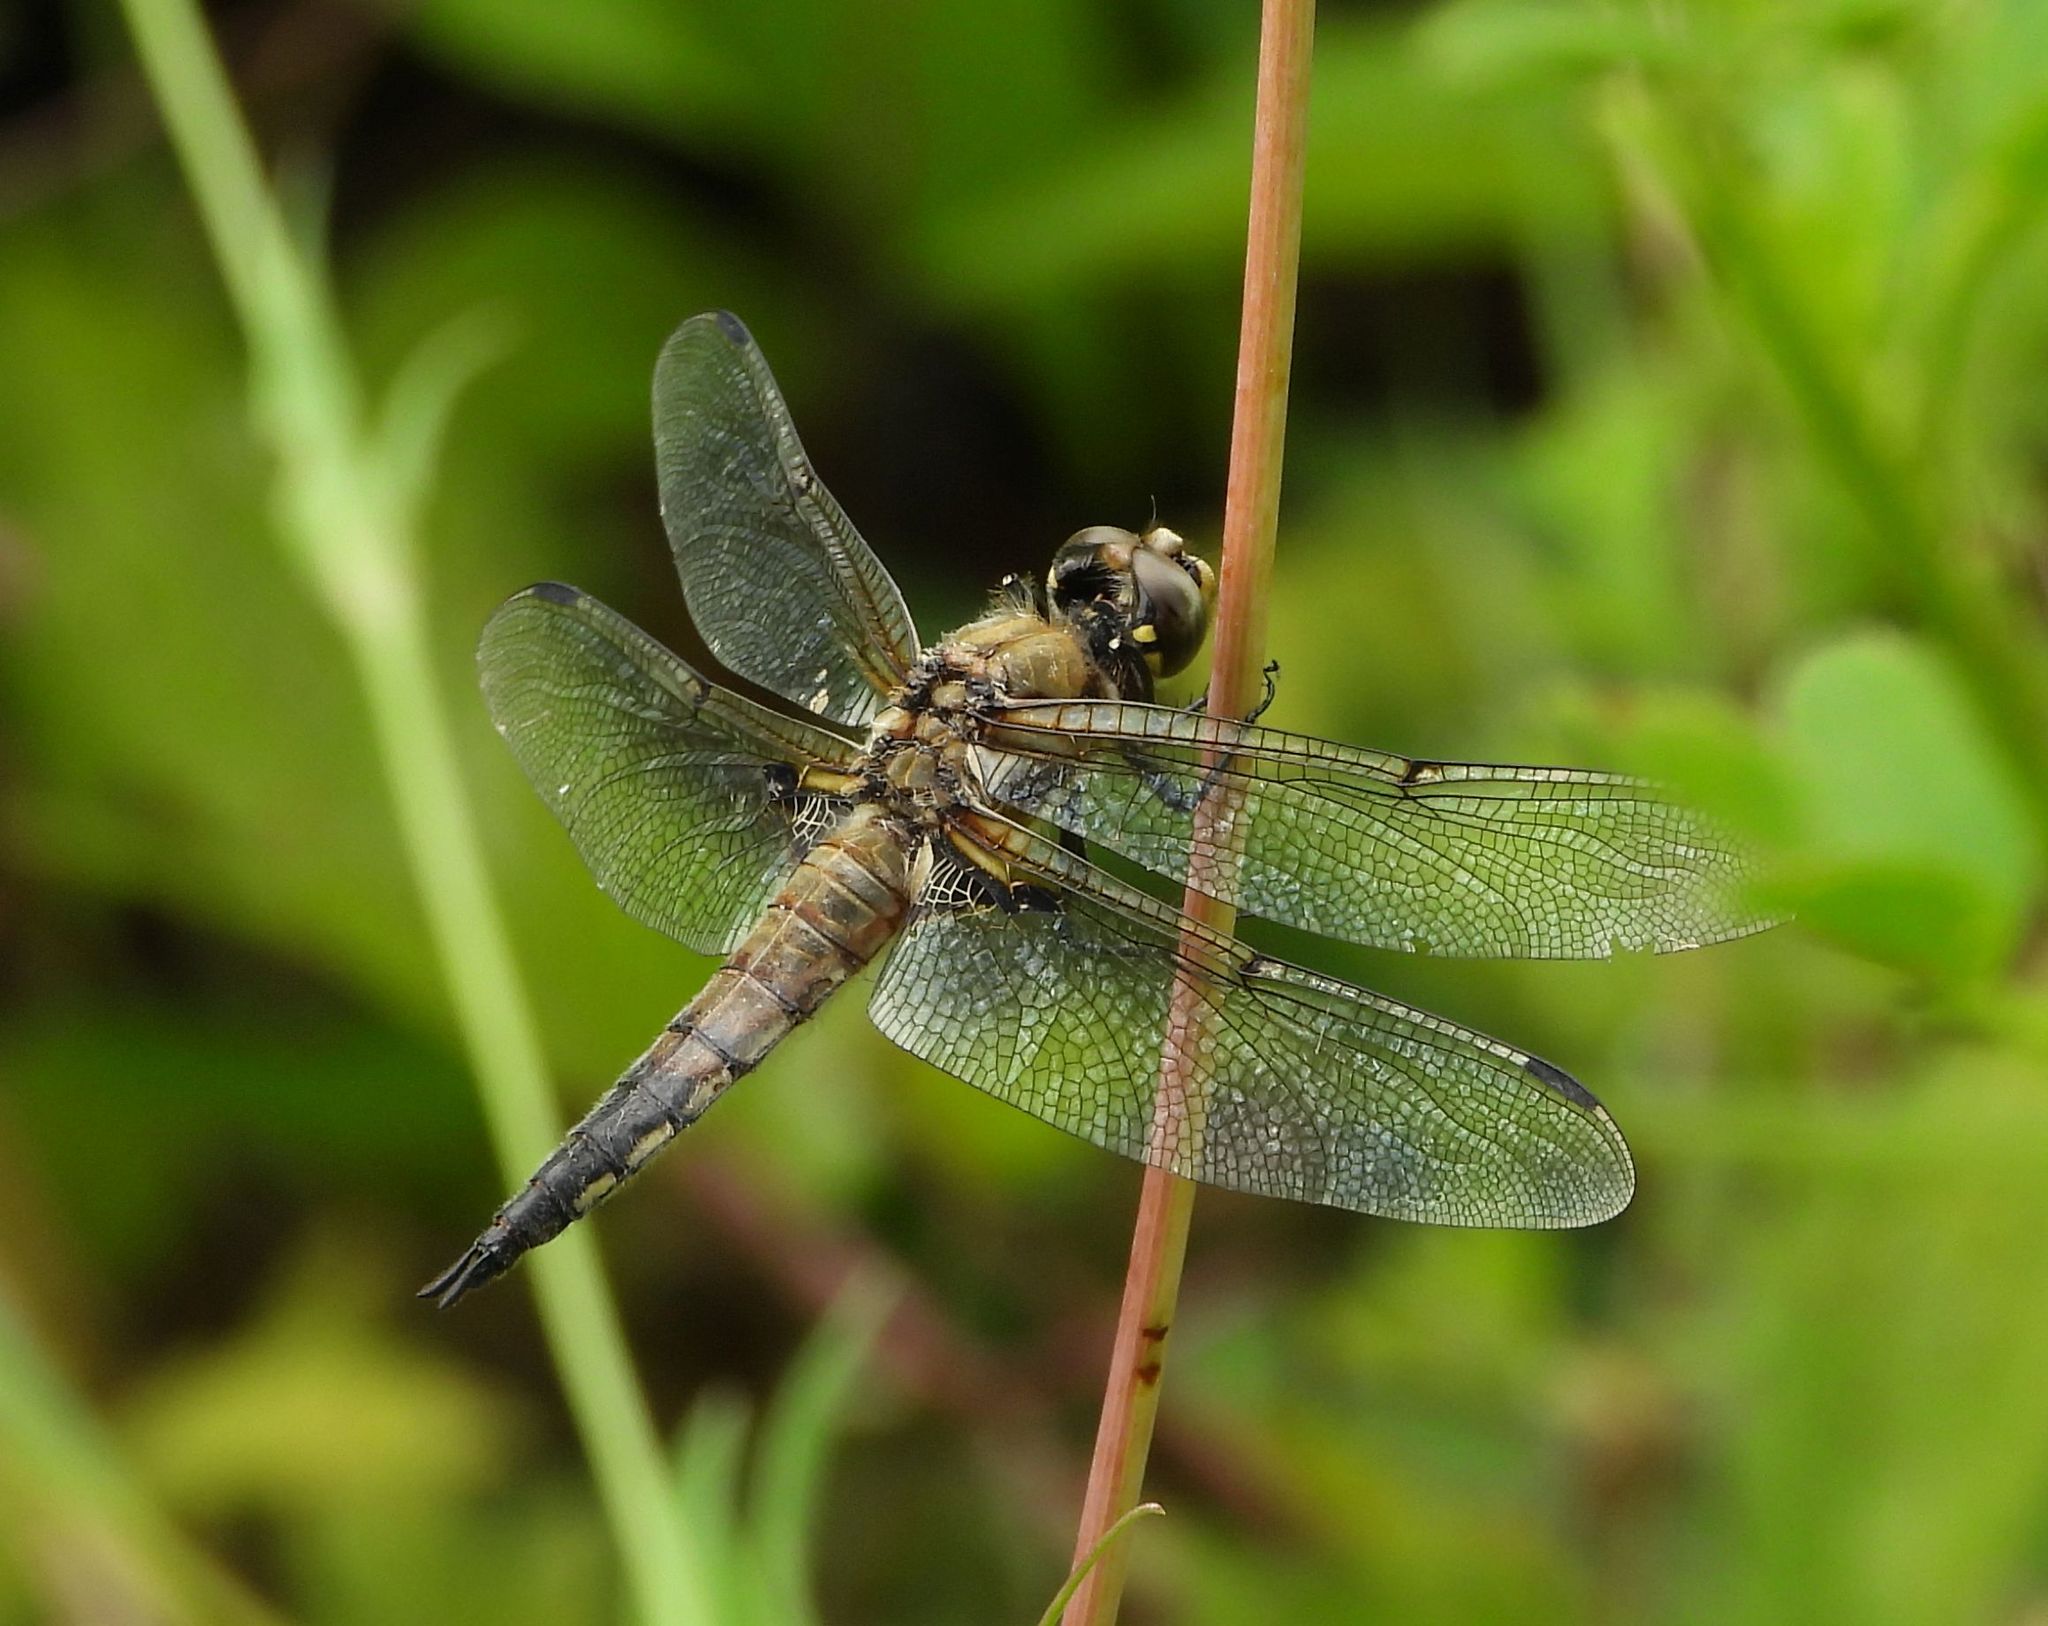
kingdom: Animalia
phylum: Arthropoda
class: Insecta
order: Odonata
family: Libellulidae
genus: Libellula
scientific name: Libellula quadrimaculata
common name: Four-spotted chaser
